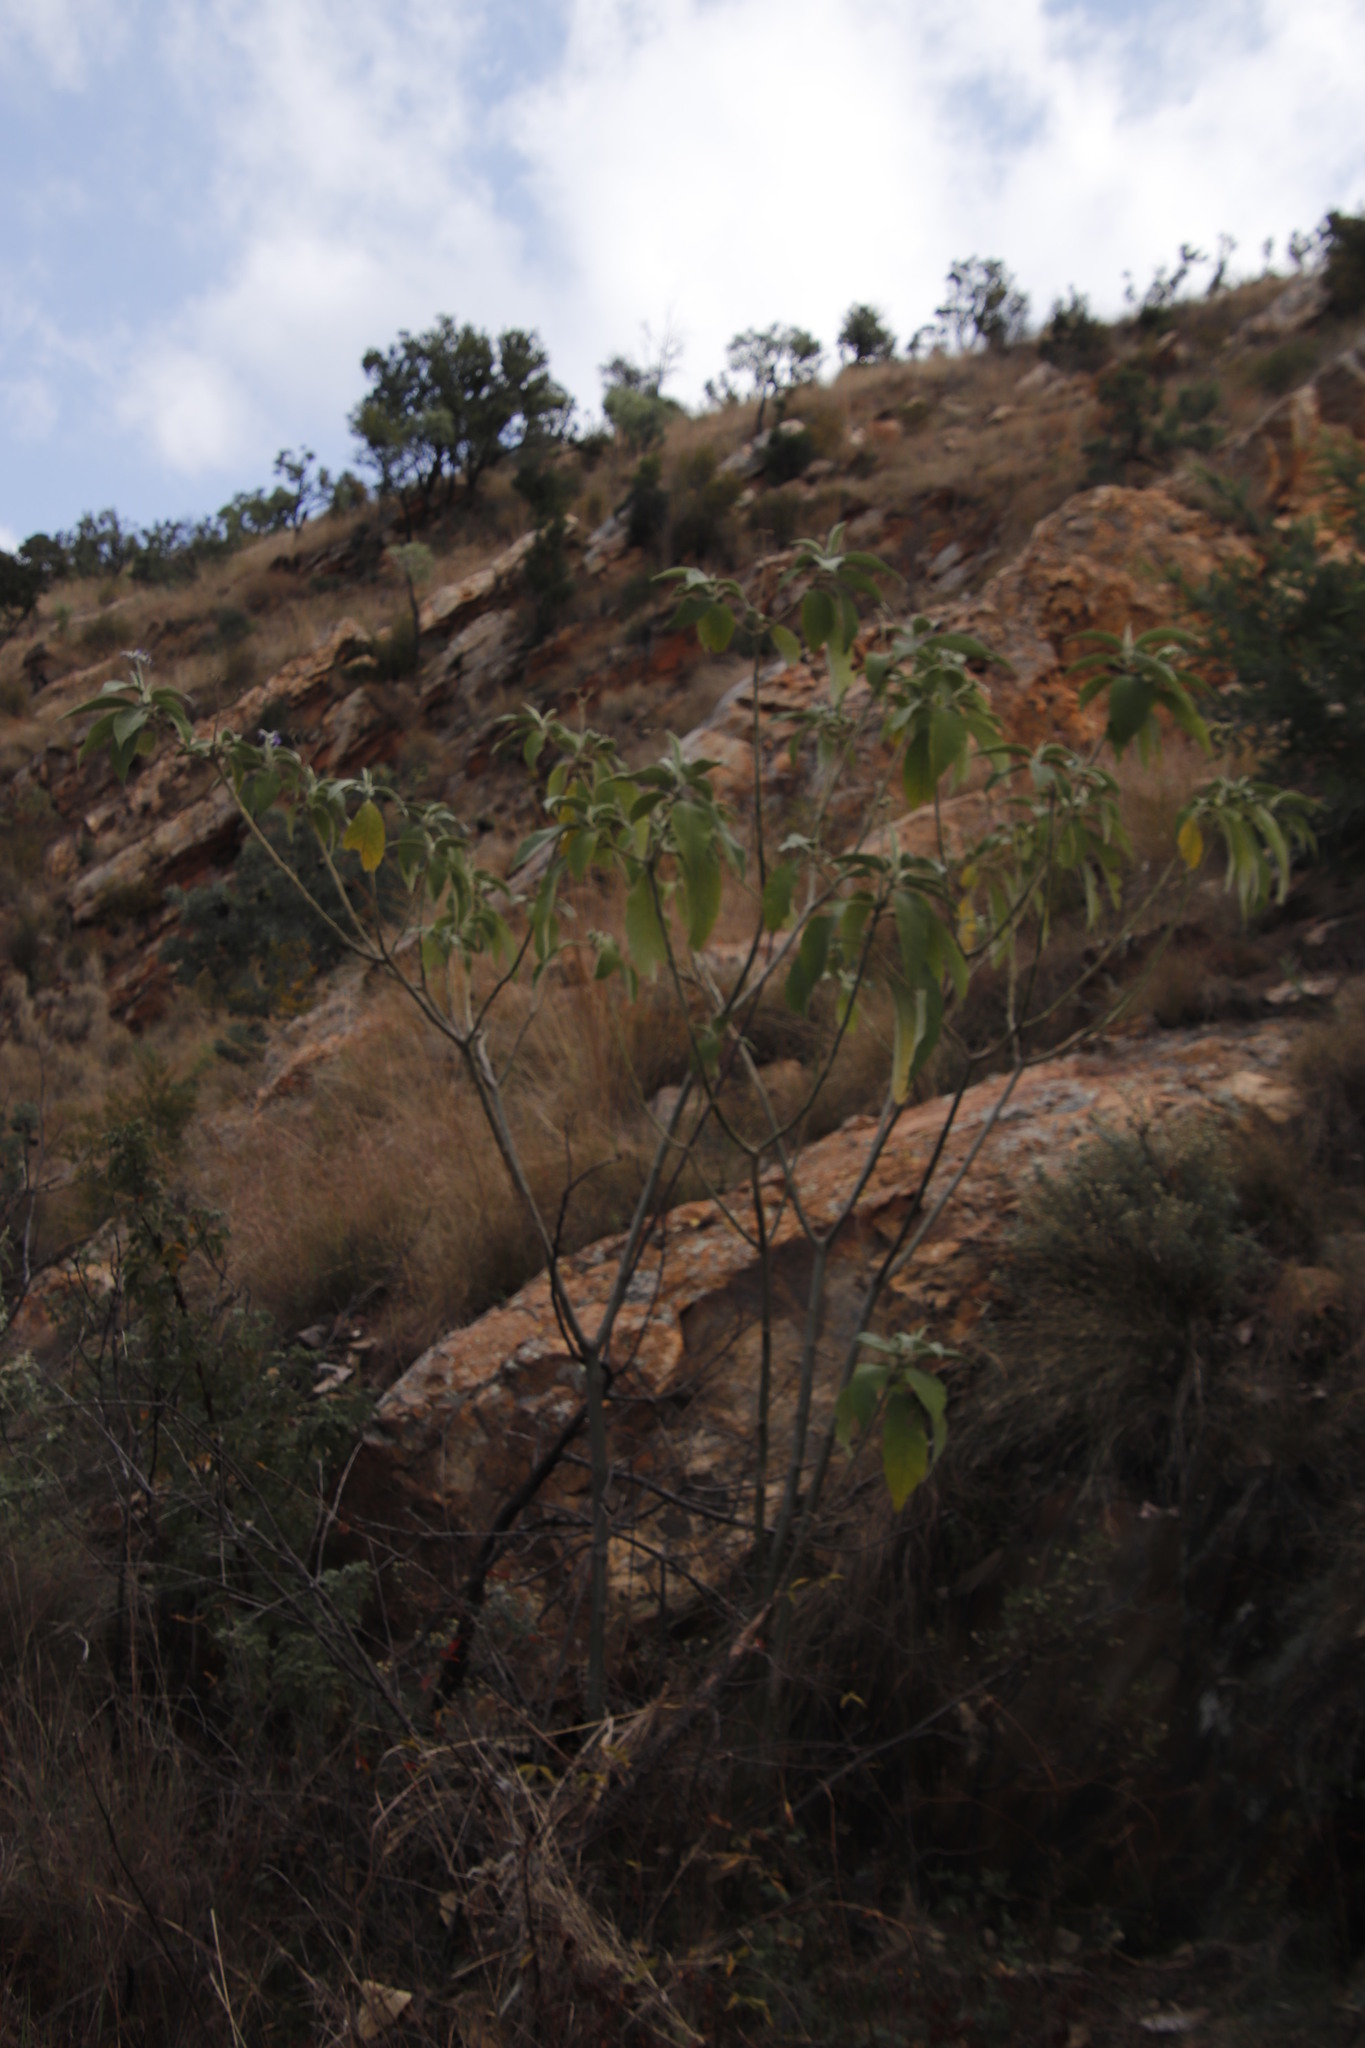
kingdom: Plantae
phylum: Tracheophyta
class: Magnoliopsida
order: Solanales
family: Solanaceae
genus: Solanum
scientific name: Solanum mauritianum
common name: Earleaf nightshade
